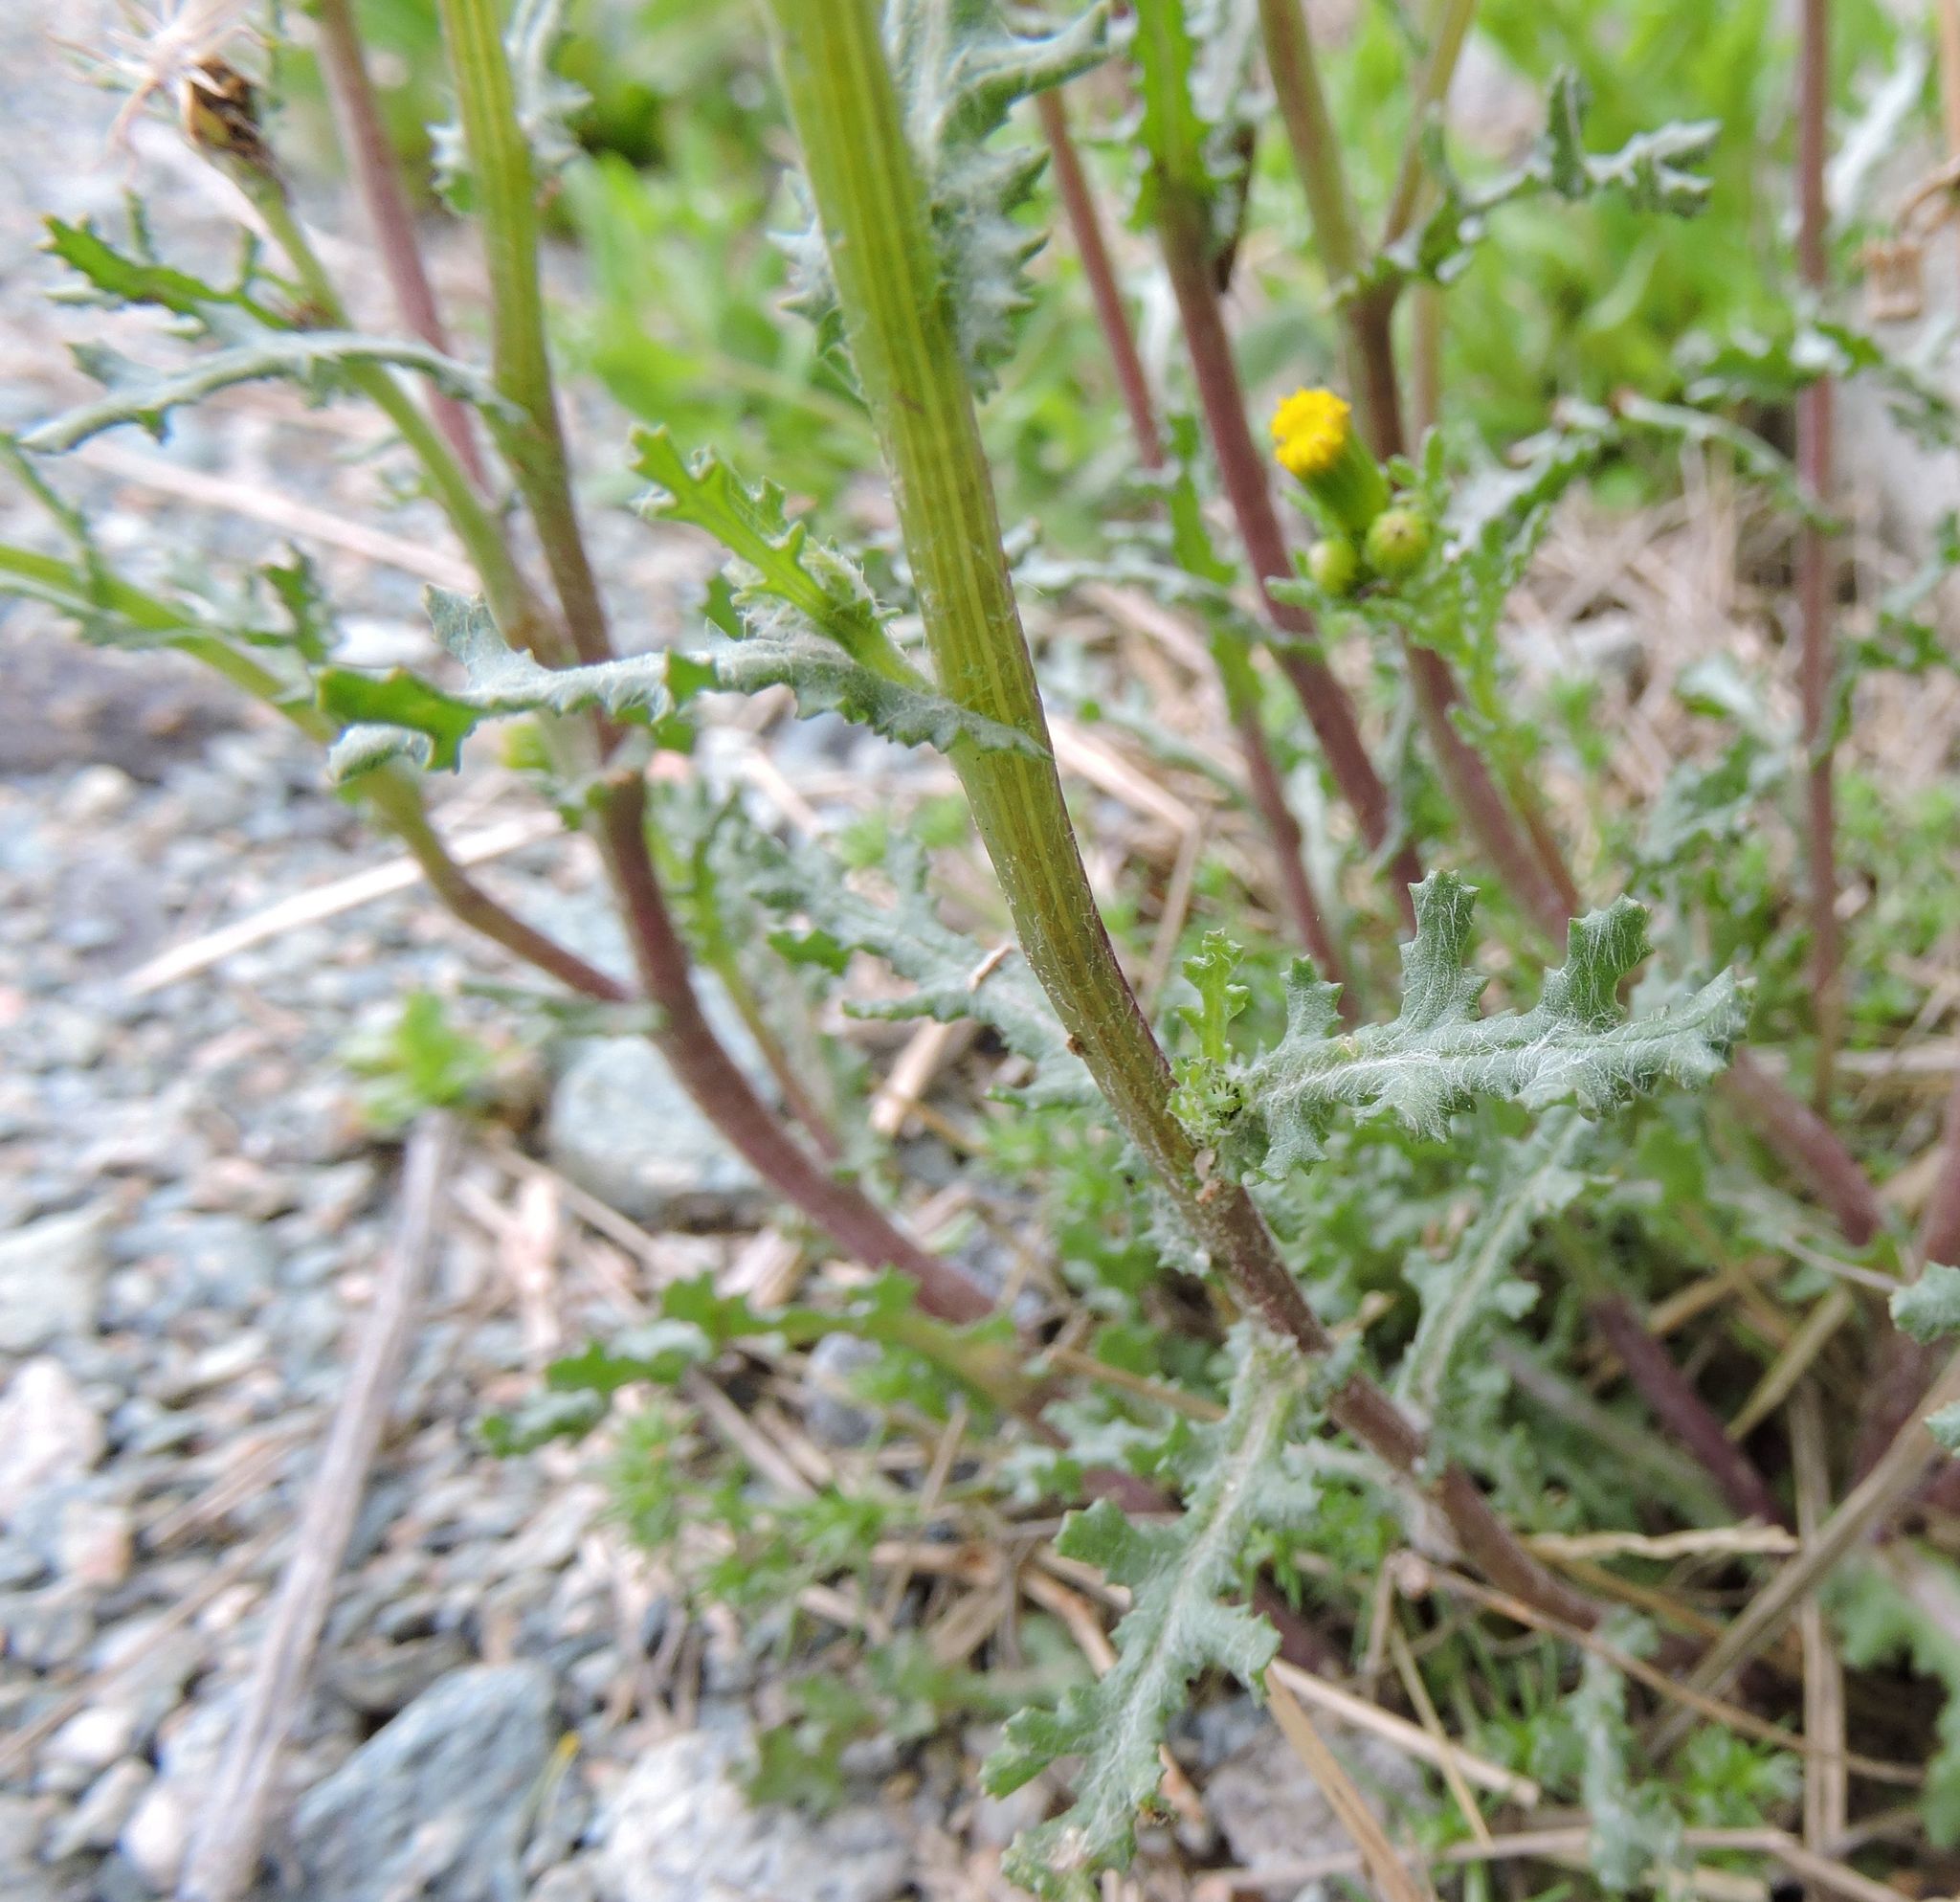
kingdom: Plantae
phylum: Tracheophyta
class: Magnoliopsida
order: Asterales
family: Asteraceae
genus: Senecio
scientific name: Senecio vulgaris
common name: Old-man-in-the-spring
